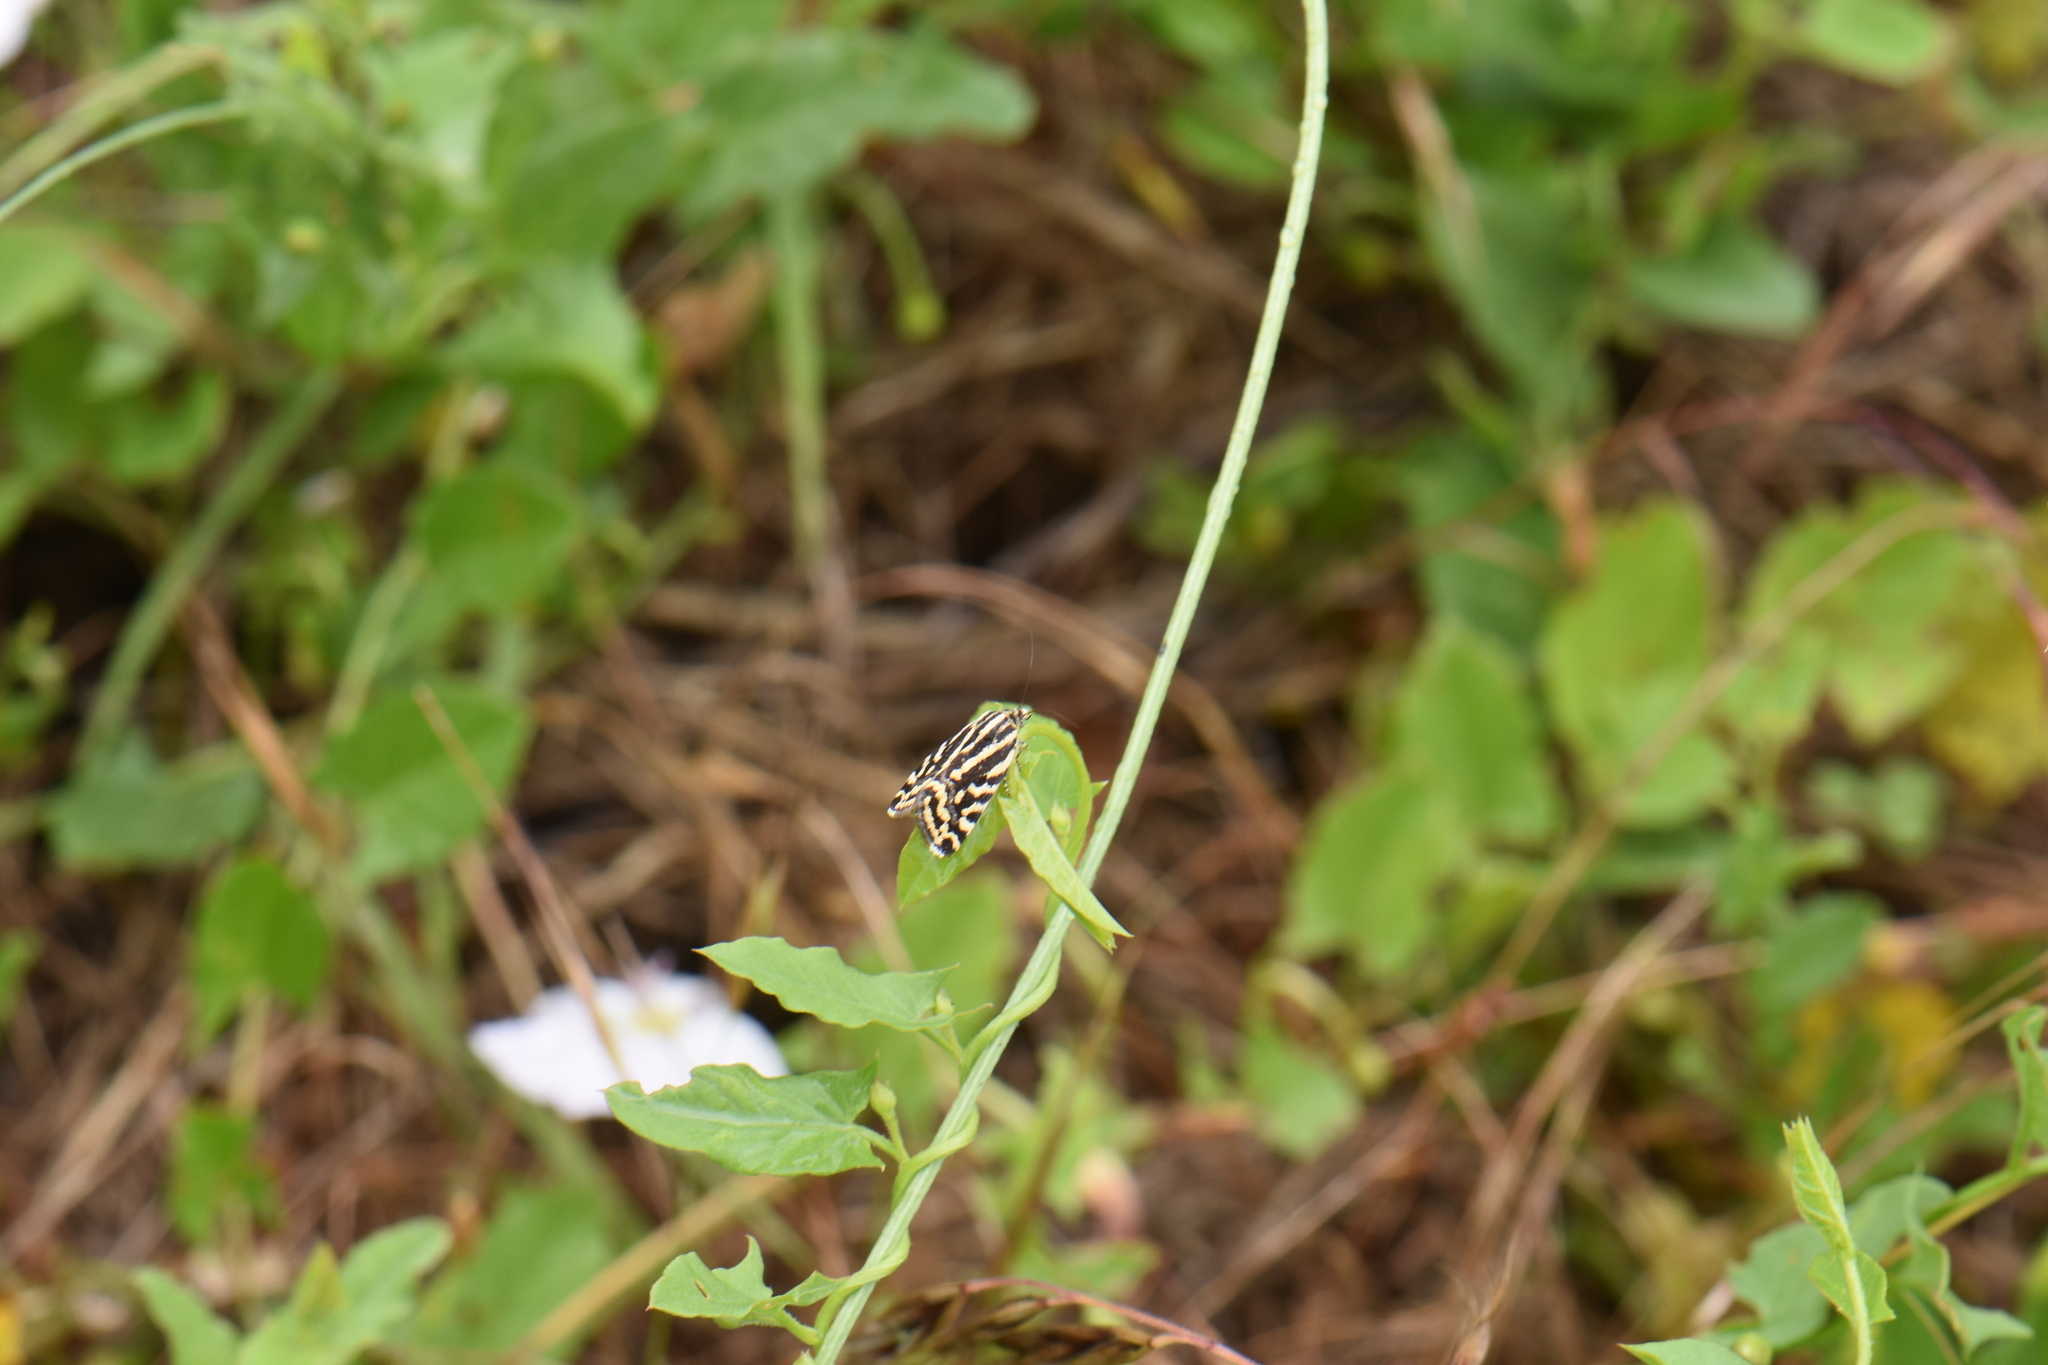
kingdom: Animalia
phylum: Arthropoda
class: Insecta
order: Lepidoptera
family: Noctuidae
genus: Acontia
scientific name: Acontia trabealis
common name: Spotted sulphur
